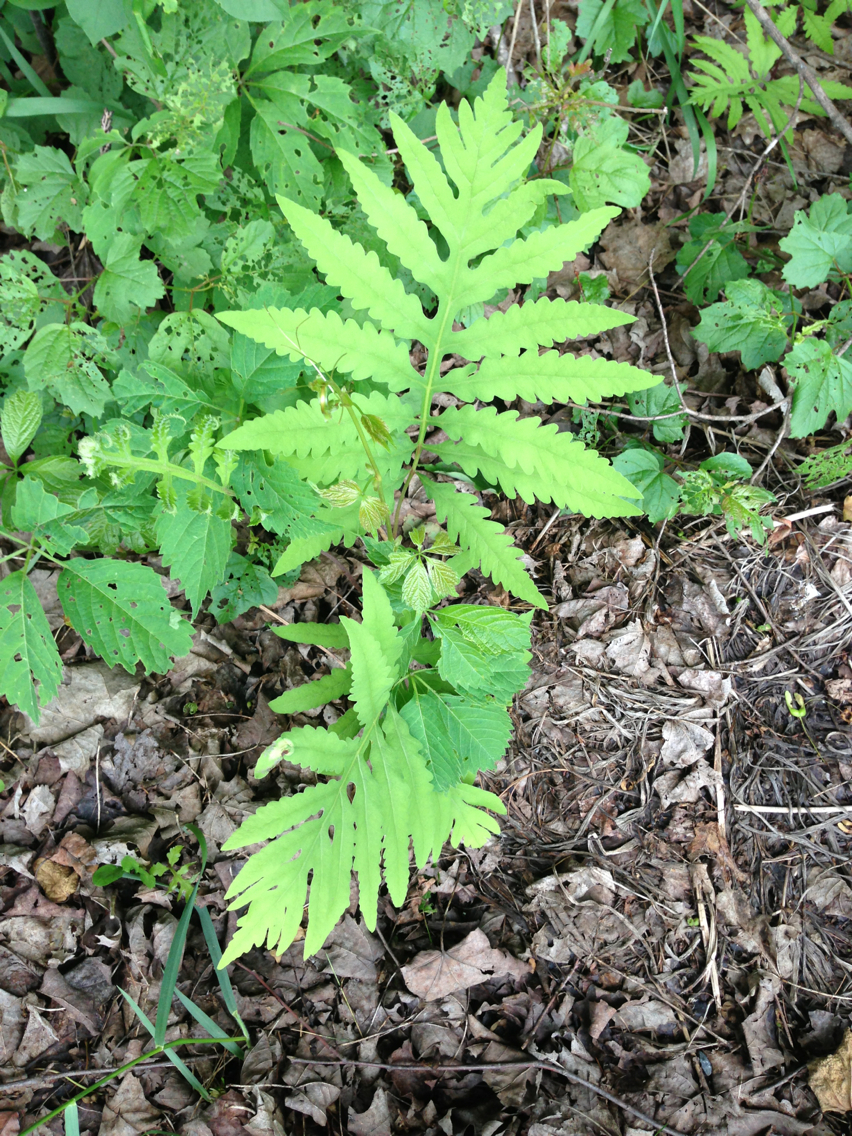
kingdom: Plantae
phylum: Tracheophyta
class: Polypodiopsida
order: Polypodiales
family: Onocleaceae
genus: Onoclea
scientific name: Onoclea sensibilis
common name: Sensitive fern
